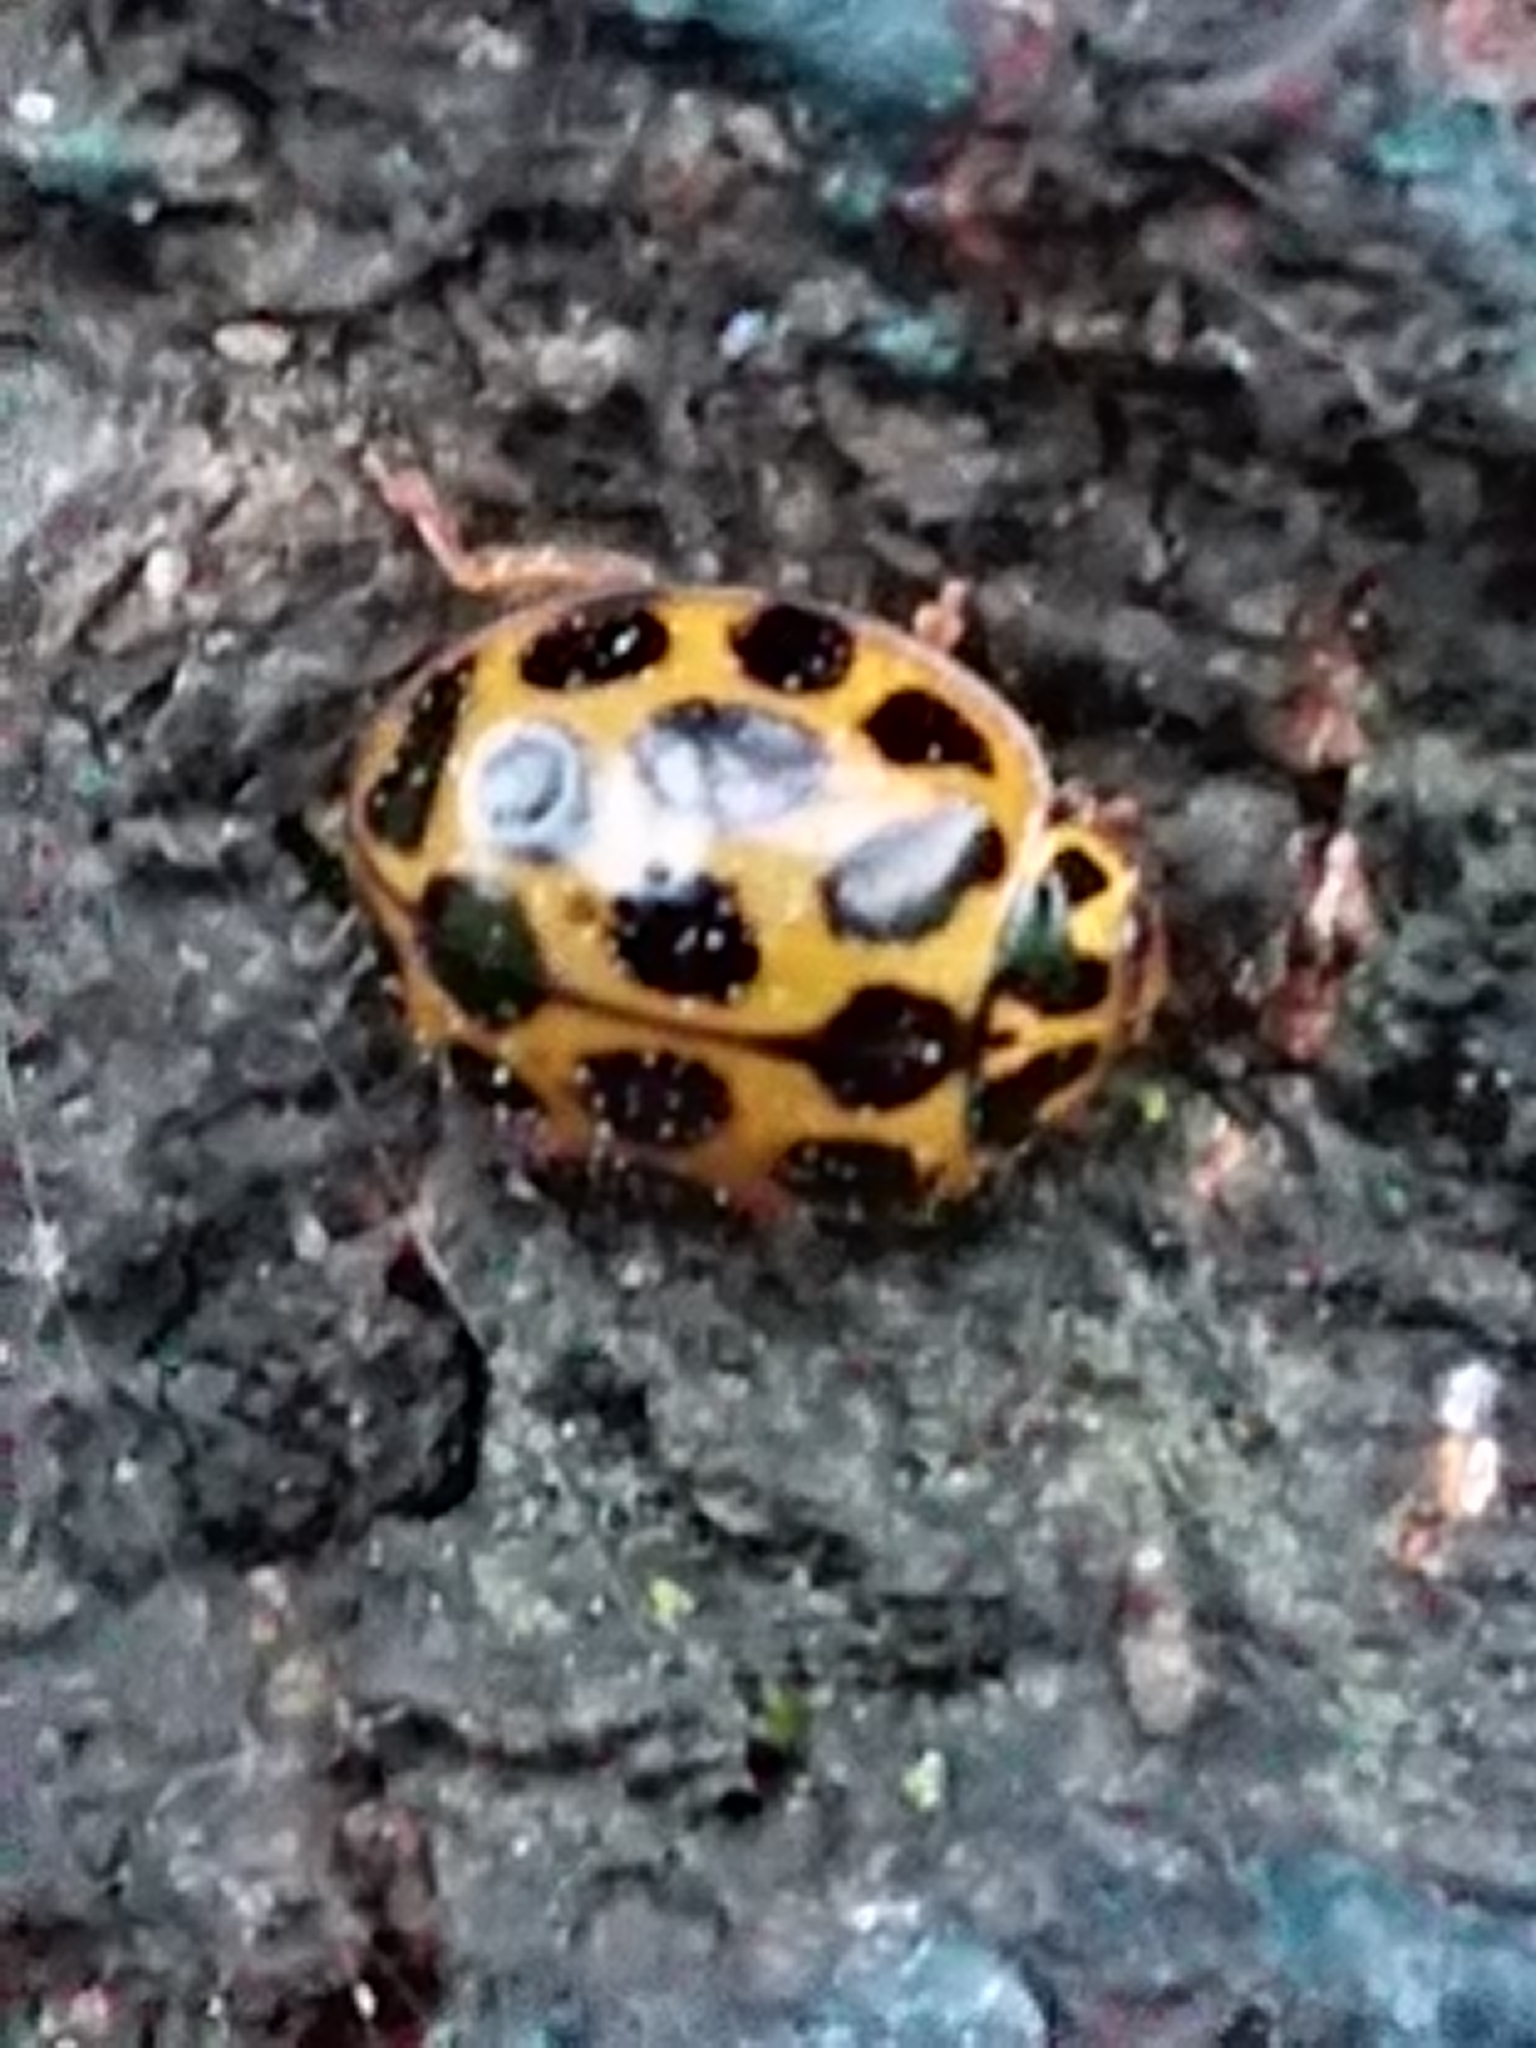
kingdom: Animalia
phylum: Arthropoda
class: Insecta
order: Coleoptera
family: Coccinellidae
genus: Harmonia
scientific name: Harmonia conformis
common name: Common spotted ladybird beetle
